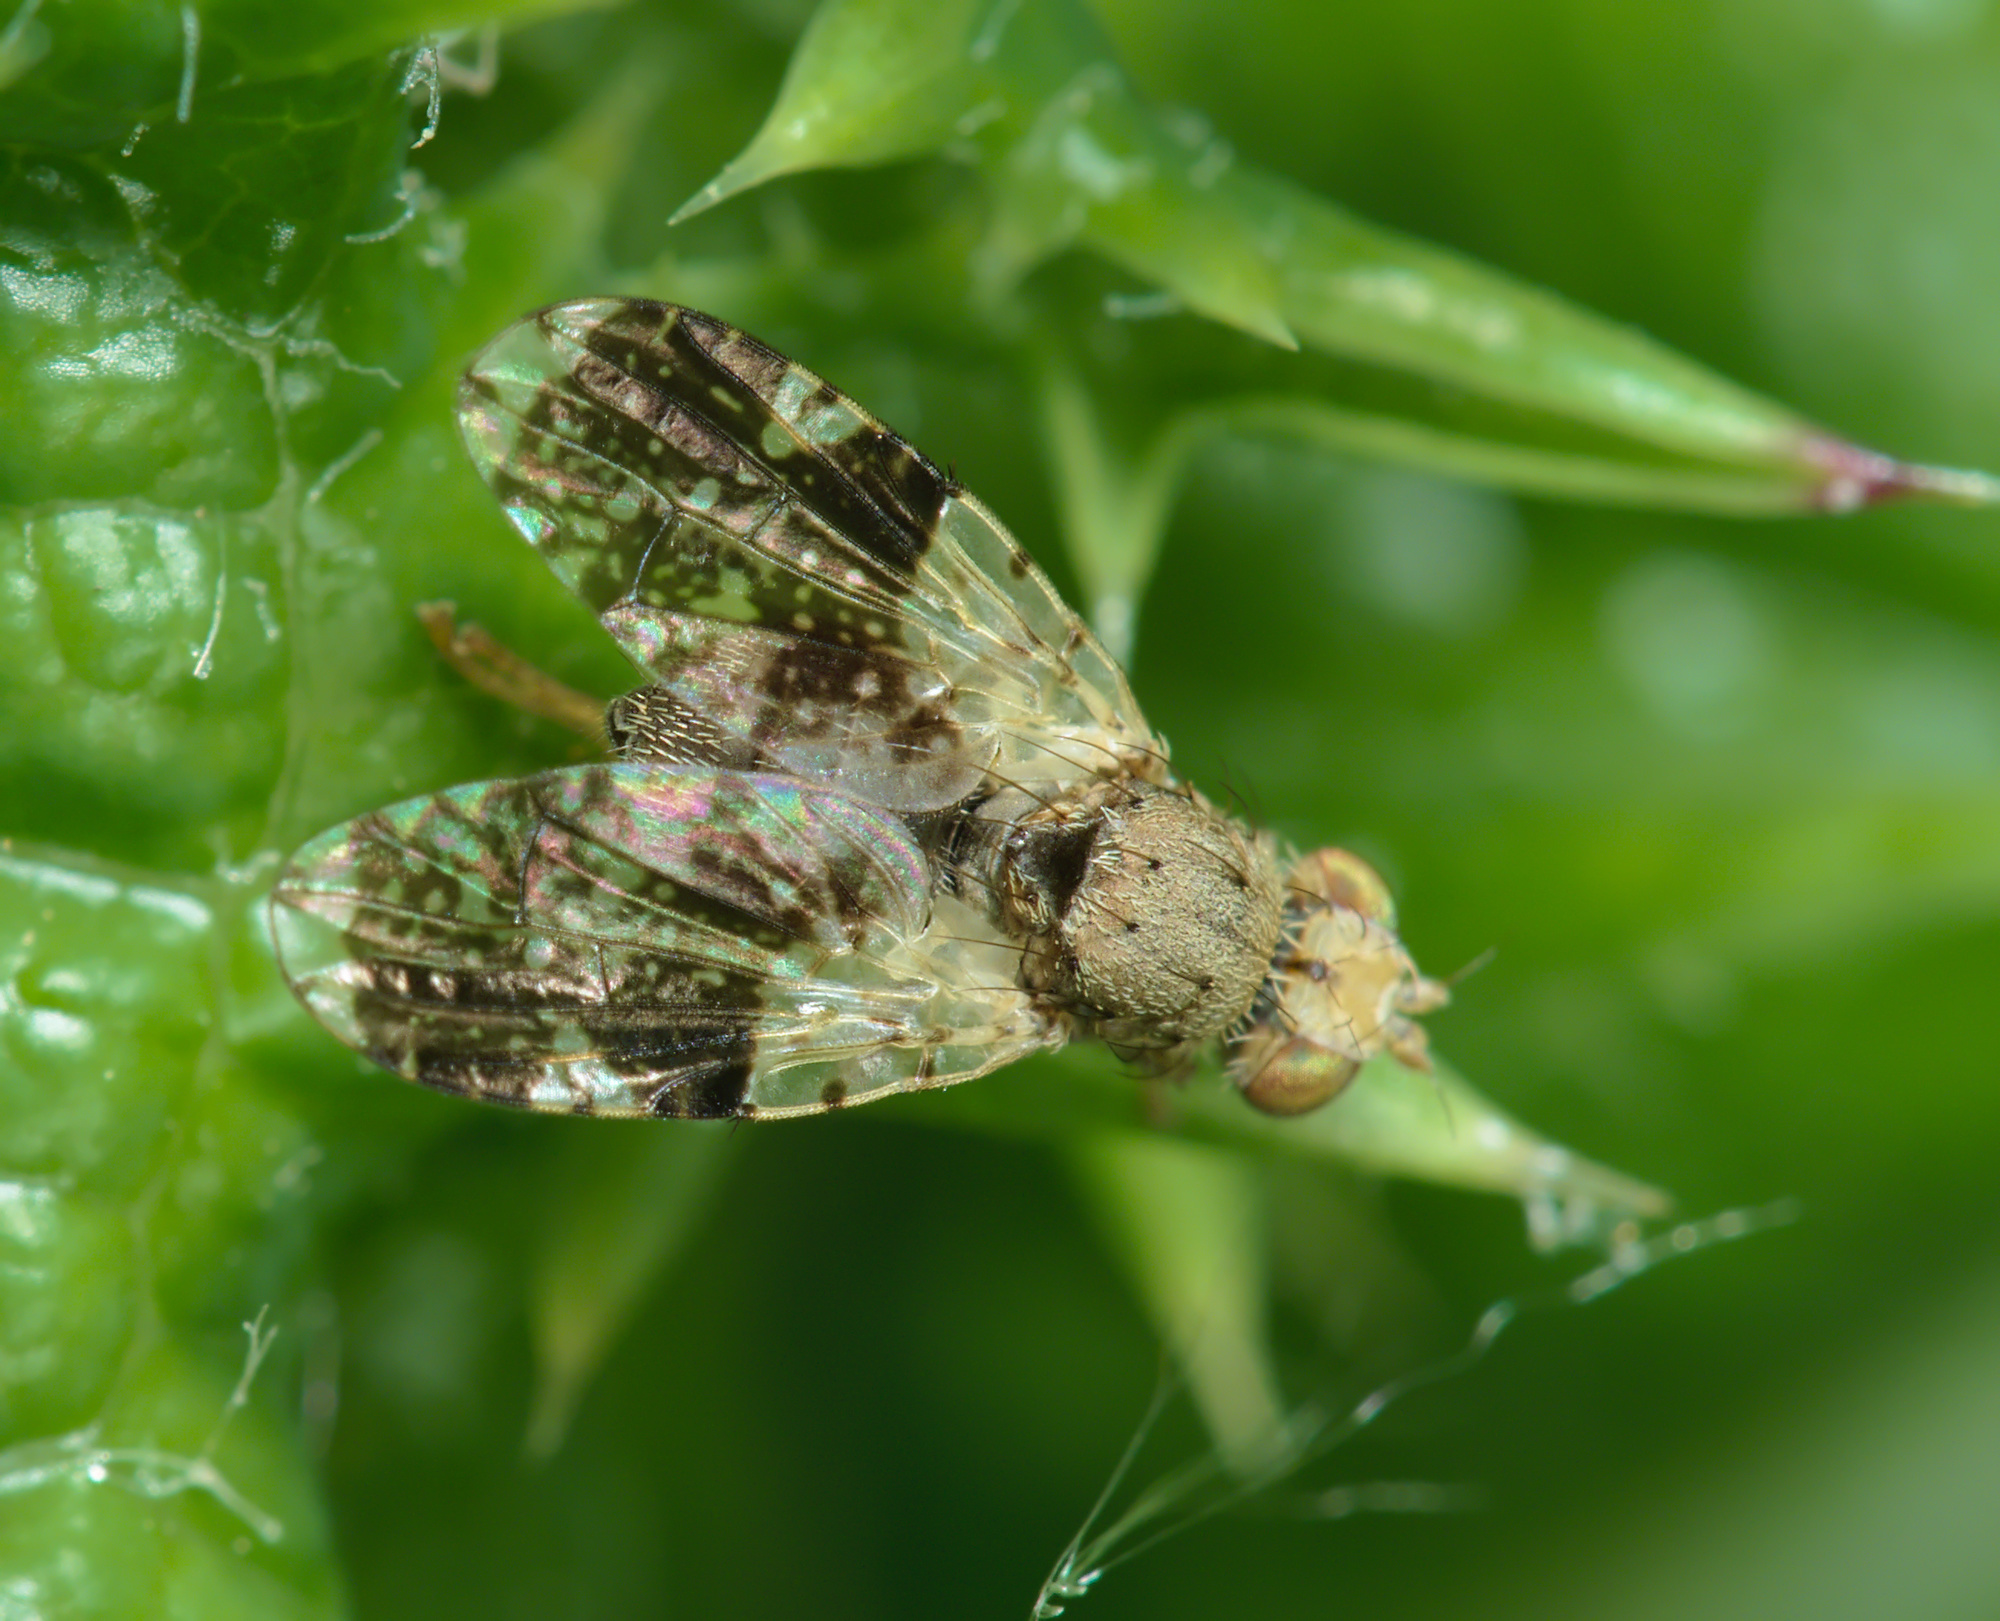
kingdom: Animalia
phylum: Arthropoda
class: Insecta
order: Diptera
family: Tephritidae
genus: Tephritis
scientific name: Tephritis formosa
